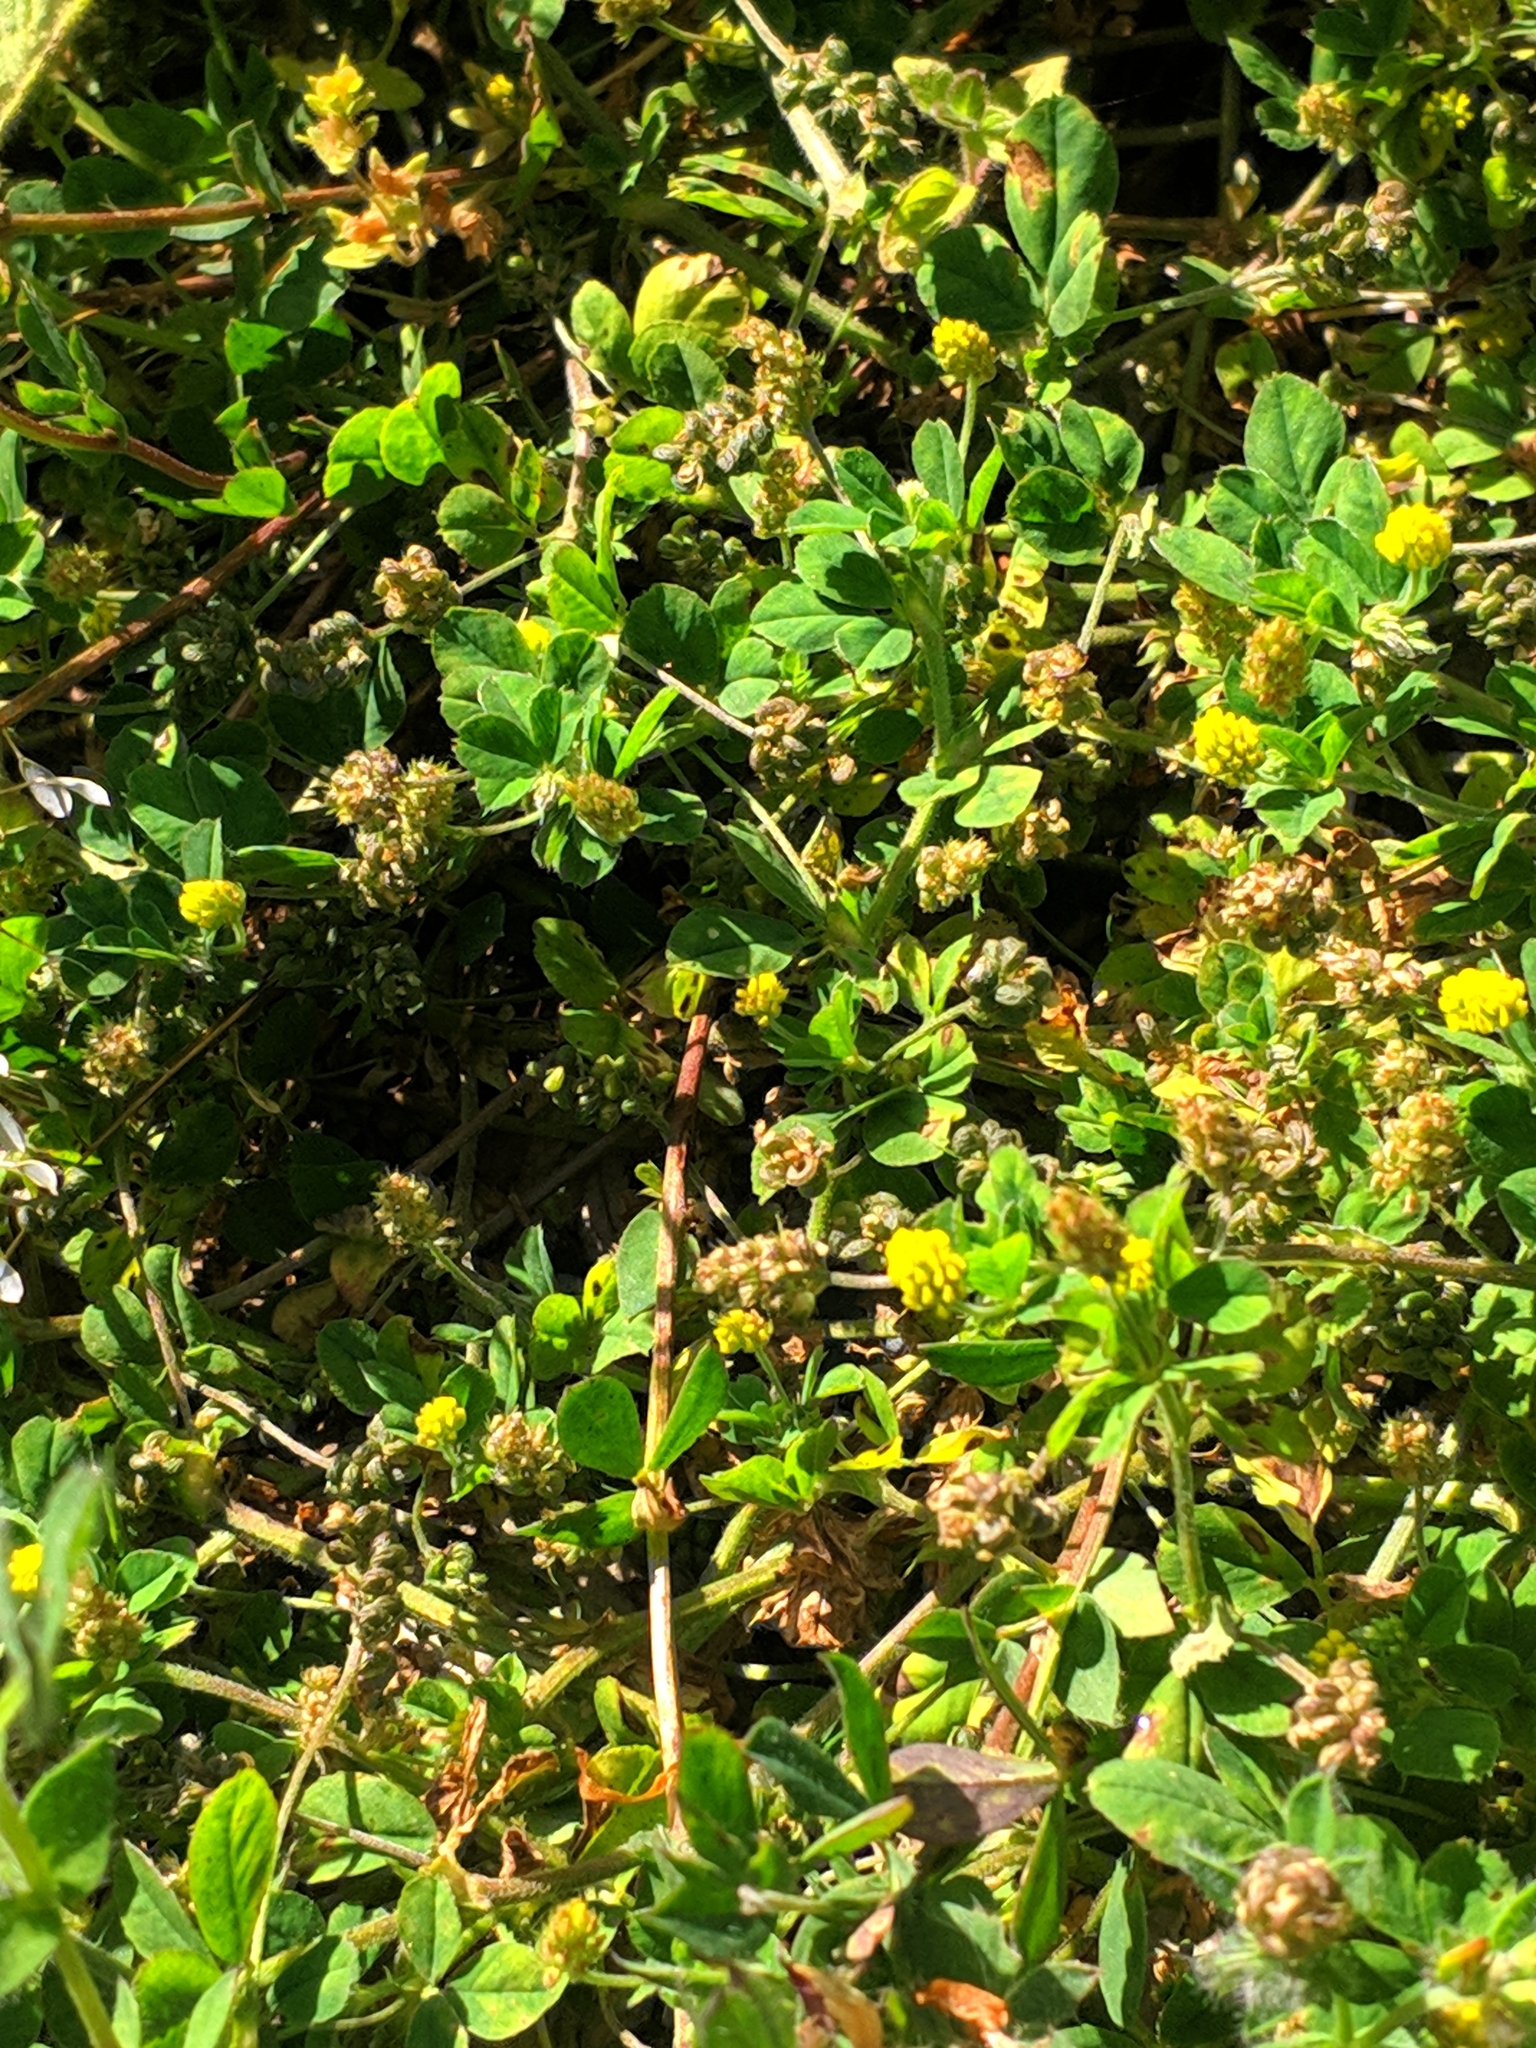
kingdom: Plantae
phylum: Tracheophyta
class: Magnoliopsida
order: Fabales
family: Fabaceae
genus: Medicago
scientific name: Medicago lupulina
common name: Black medick
